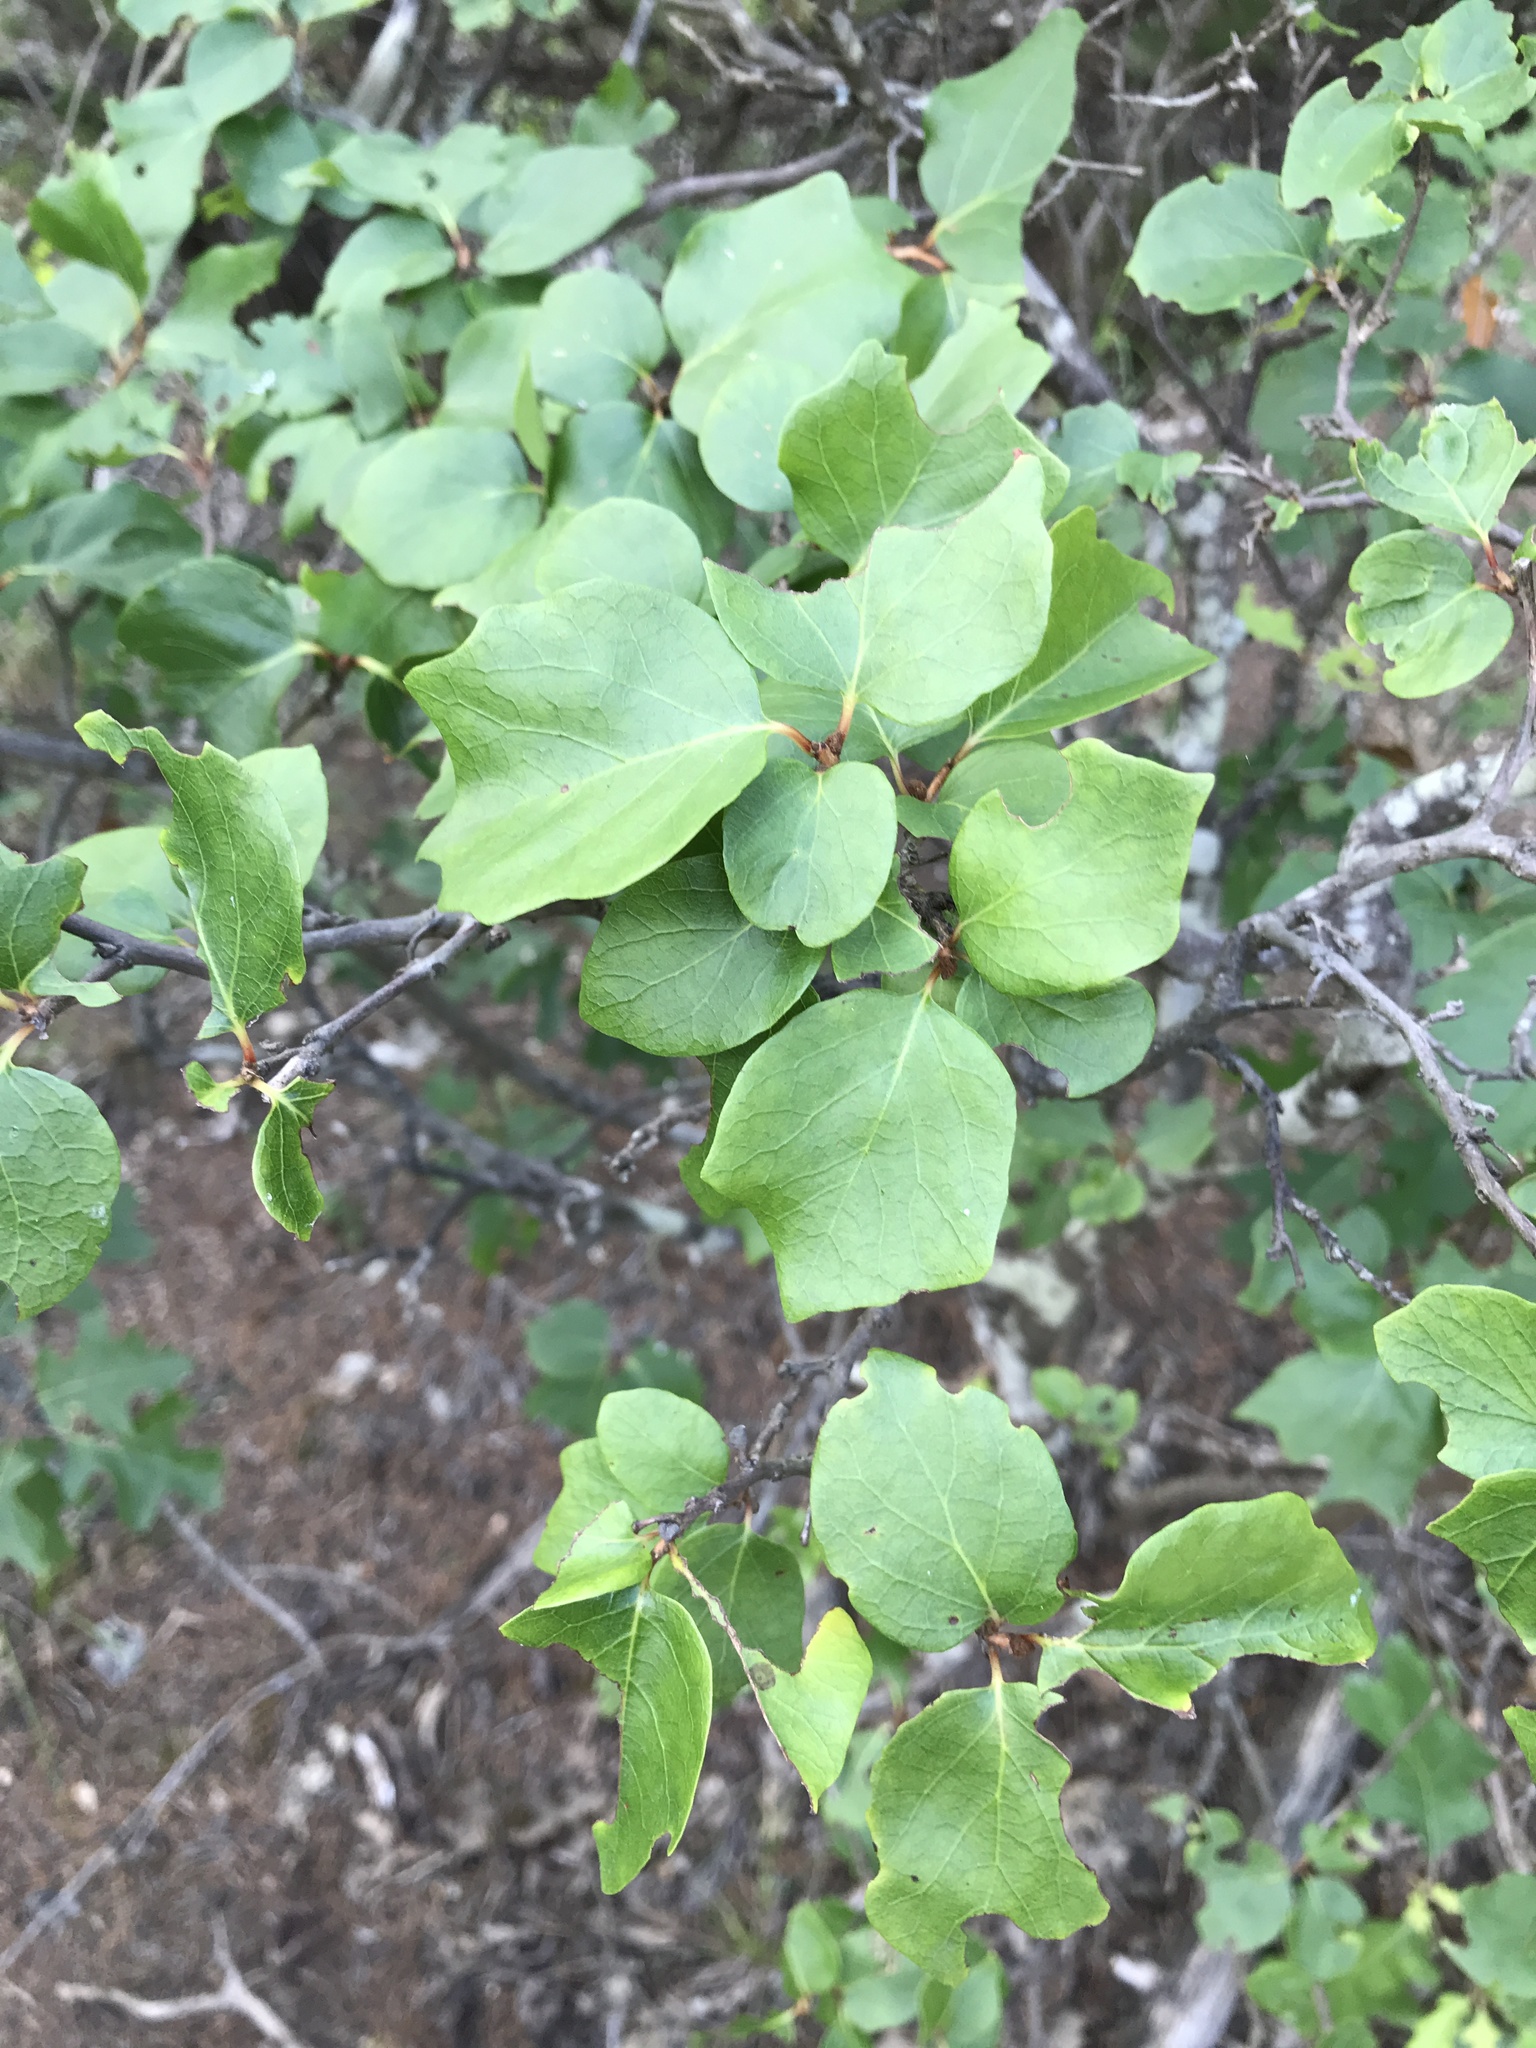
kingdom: Plantae
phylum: Tracheophyta
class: Magnoliopsida
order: Ericales
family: Styracaceae
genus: Styrax
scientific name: Styrax platanifolius
